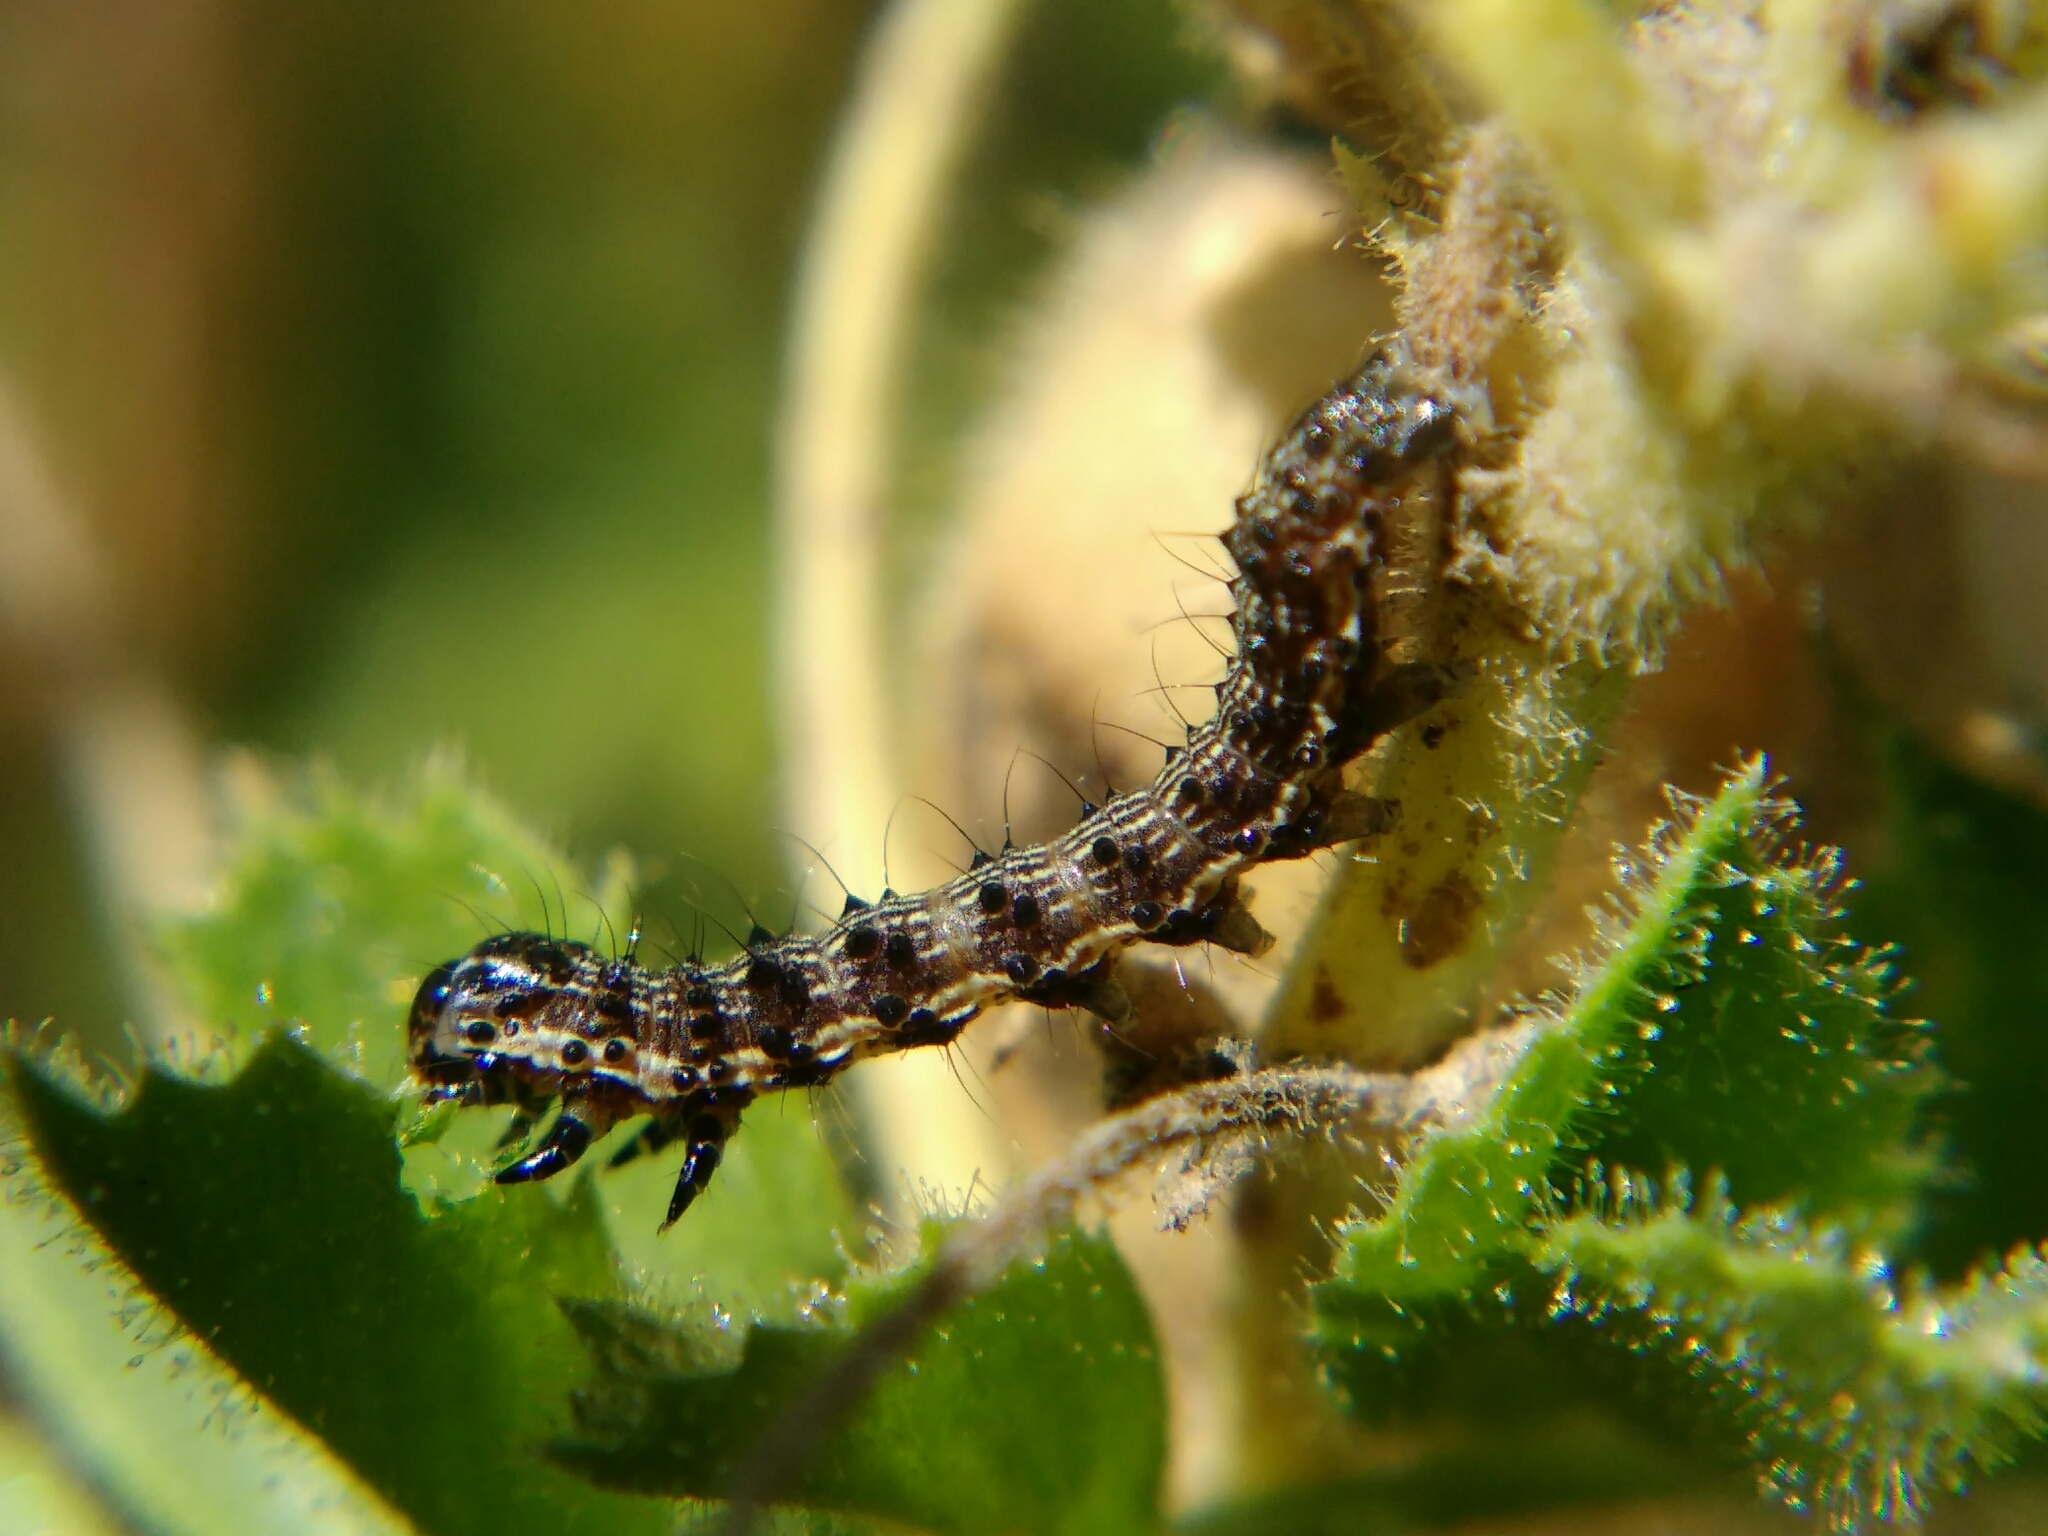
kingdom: Animalia
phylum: Arthropoda
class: Insecta
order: Lepidoptera
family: Noctuidae
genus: Helicoverpa
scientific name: Helicoverpa armigera
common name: Cotton bollworm
